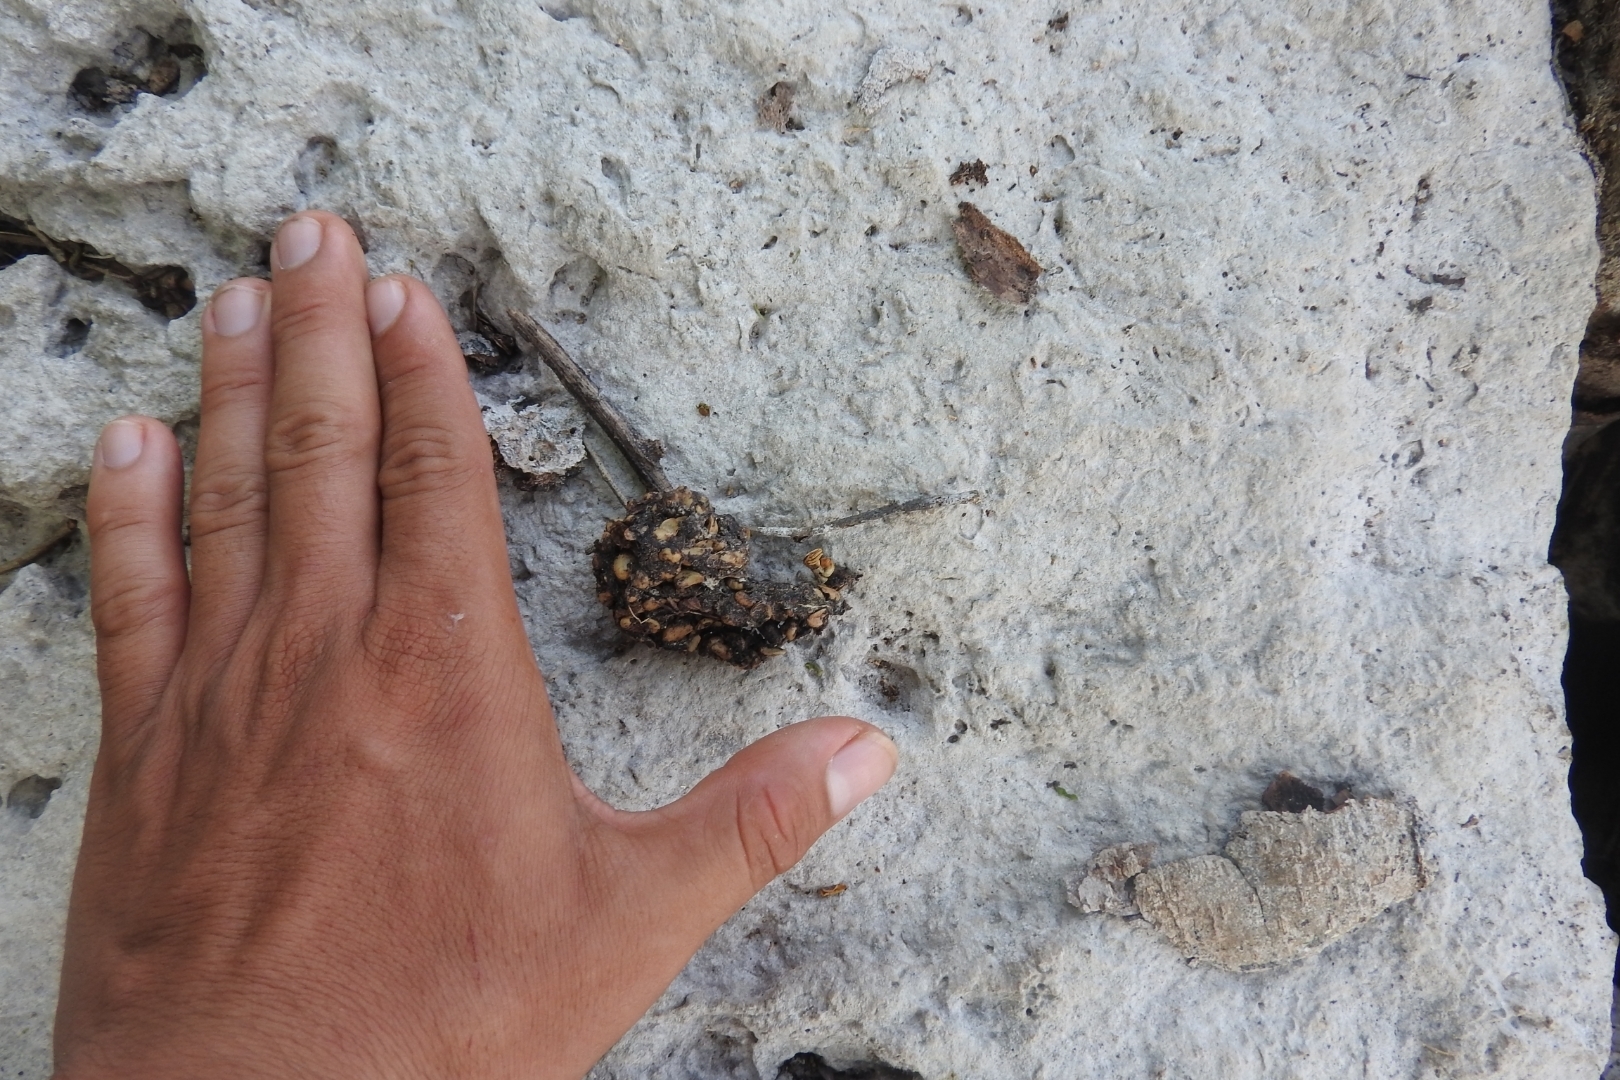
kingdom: Animalia
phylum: Chordata
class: Mammalia
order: Carnivora
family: Canidae
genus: Urocyon
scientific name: Urocyon cinereoargenteus
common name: Gray fox
